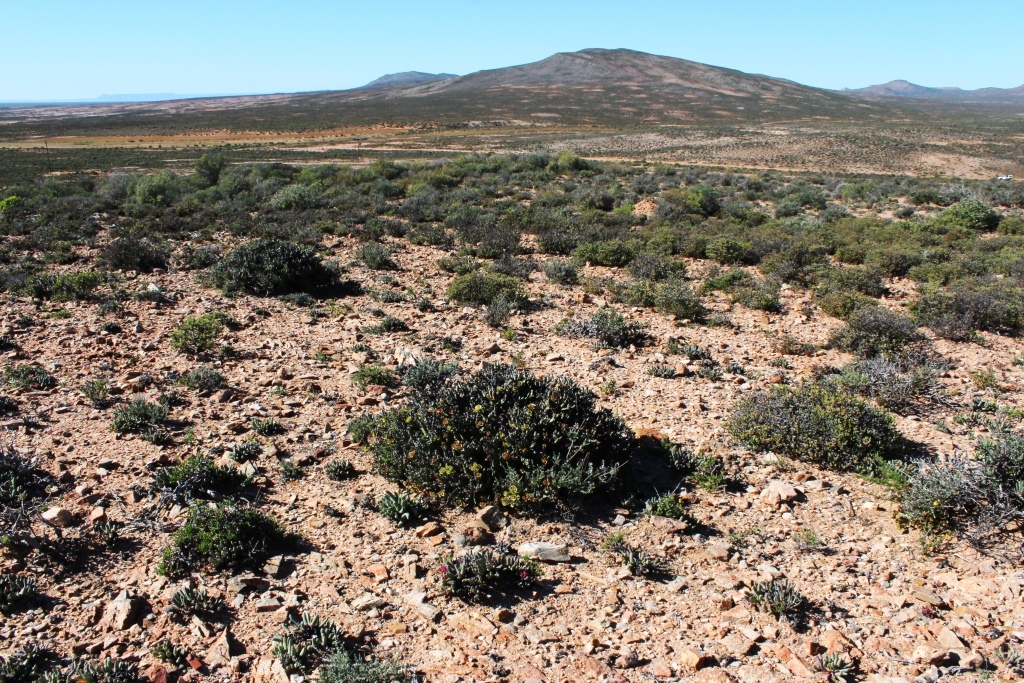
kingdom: Plantae
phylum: Tracheophyta
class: Magnoliopsida
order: Malpighiales
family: Euphorbiaceae
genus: Euphorbia
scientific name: Euphorbia hamata
